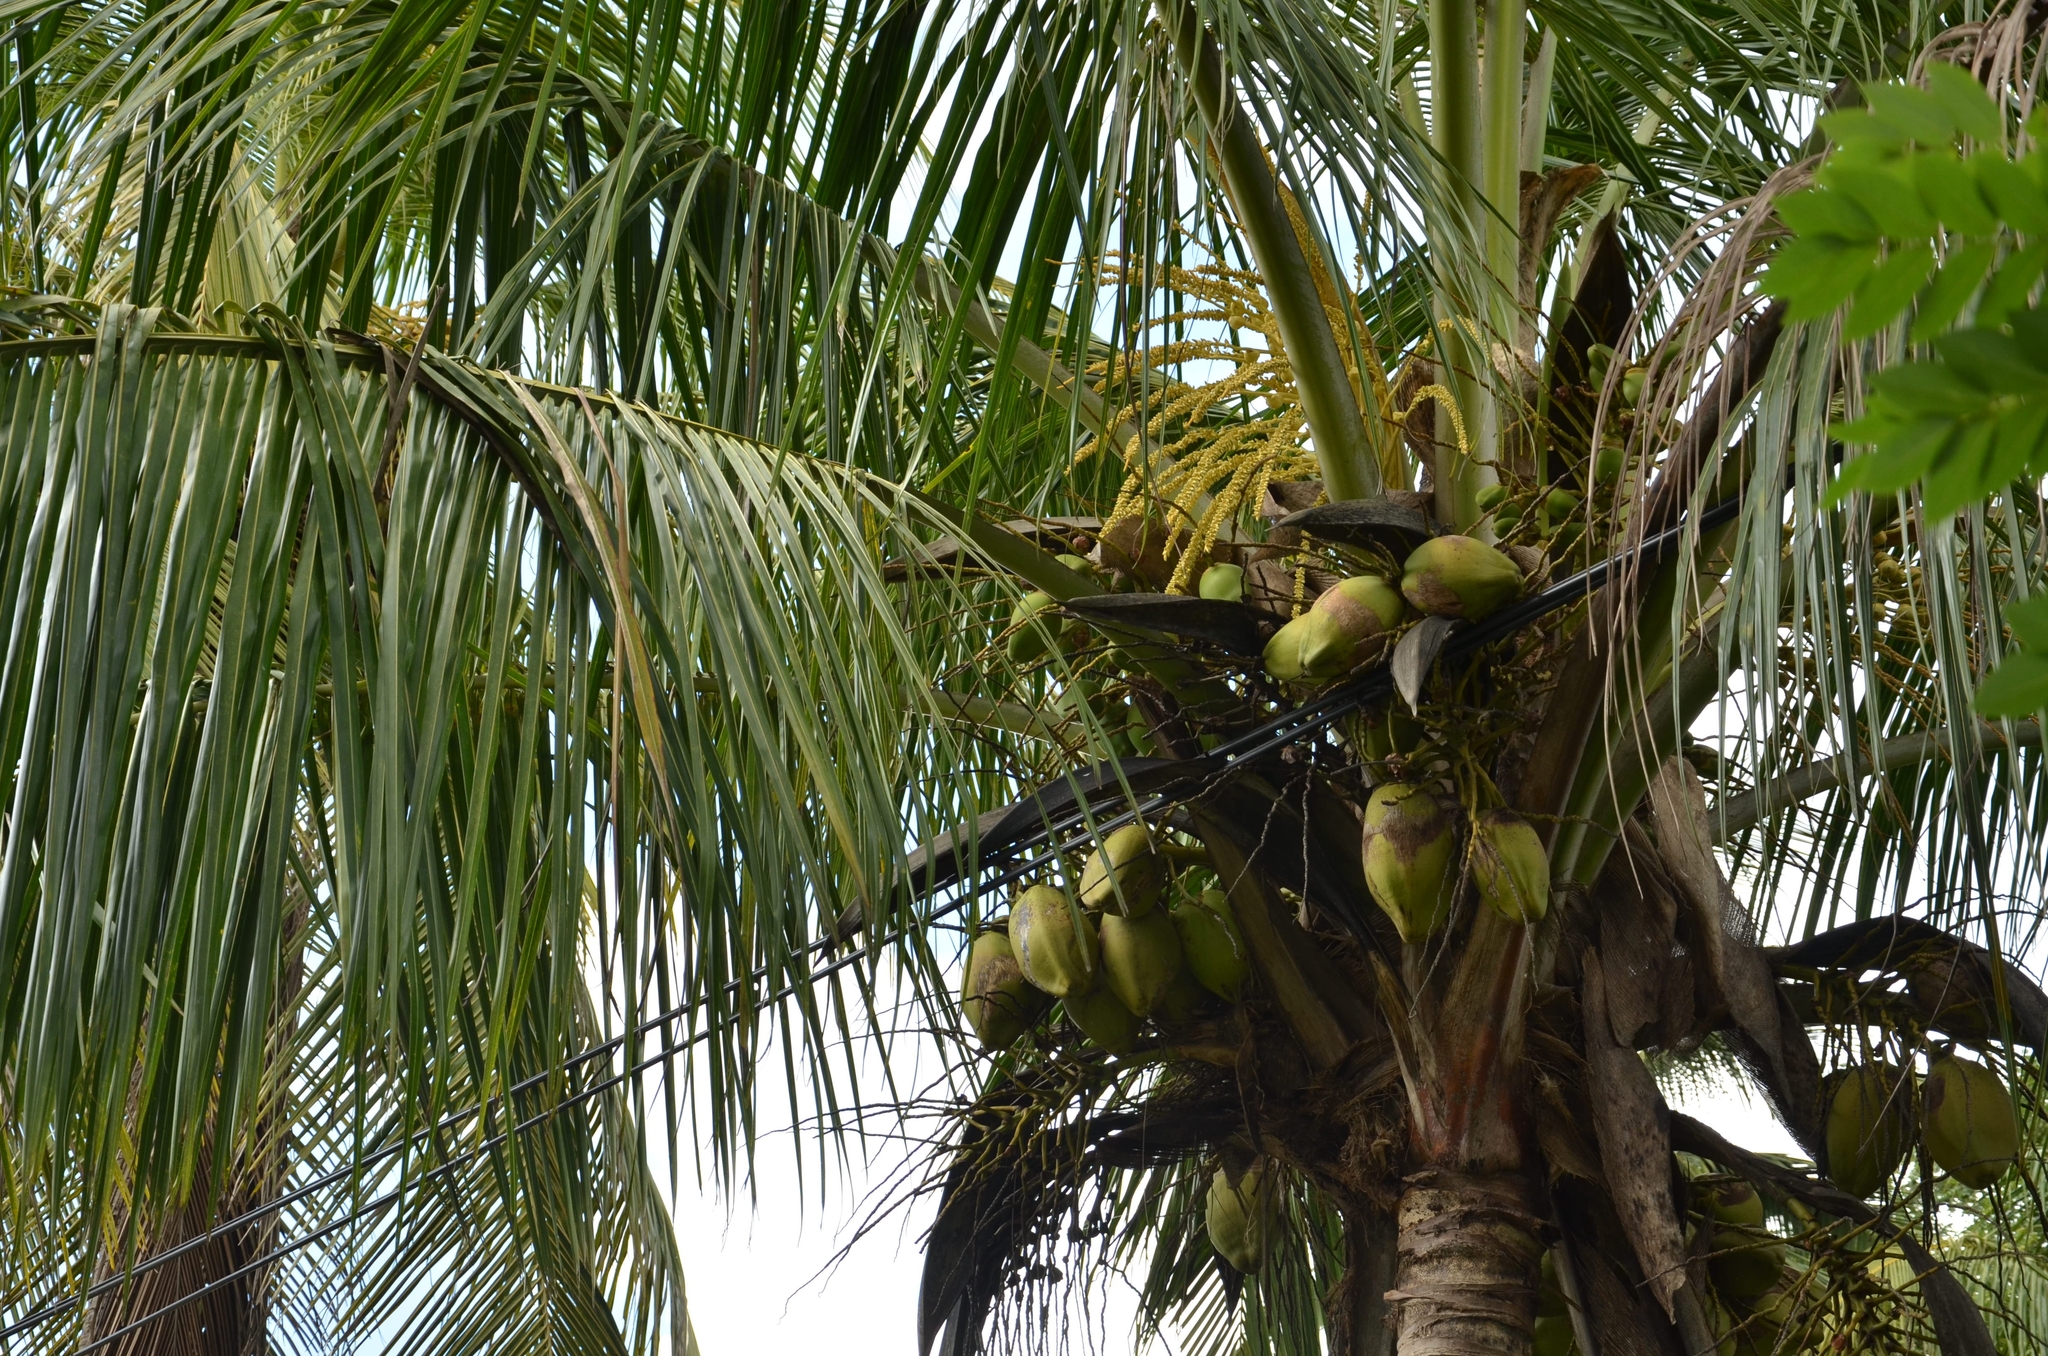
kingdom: Plantae
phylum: Tracheophyta
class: Liliopsida
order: Arecales
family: Arecaceae
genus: Cocos
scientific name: Cocos nucifera
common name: Coconut palm
